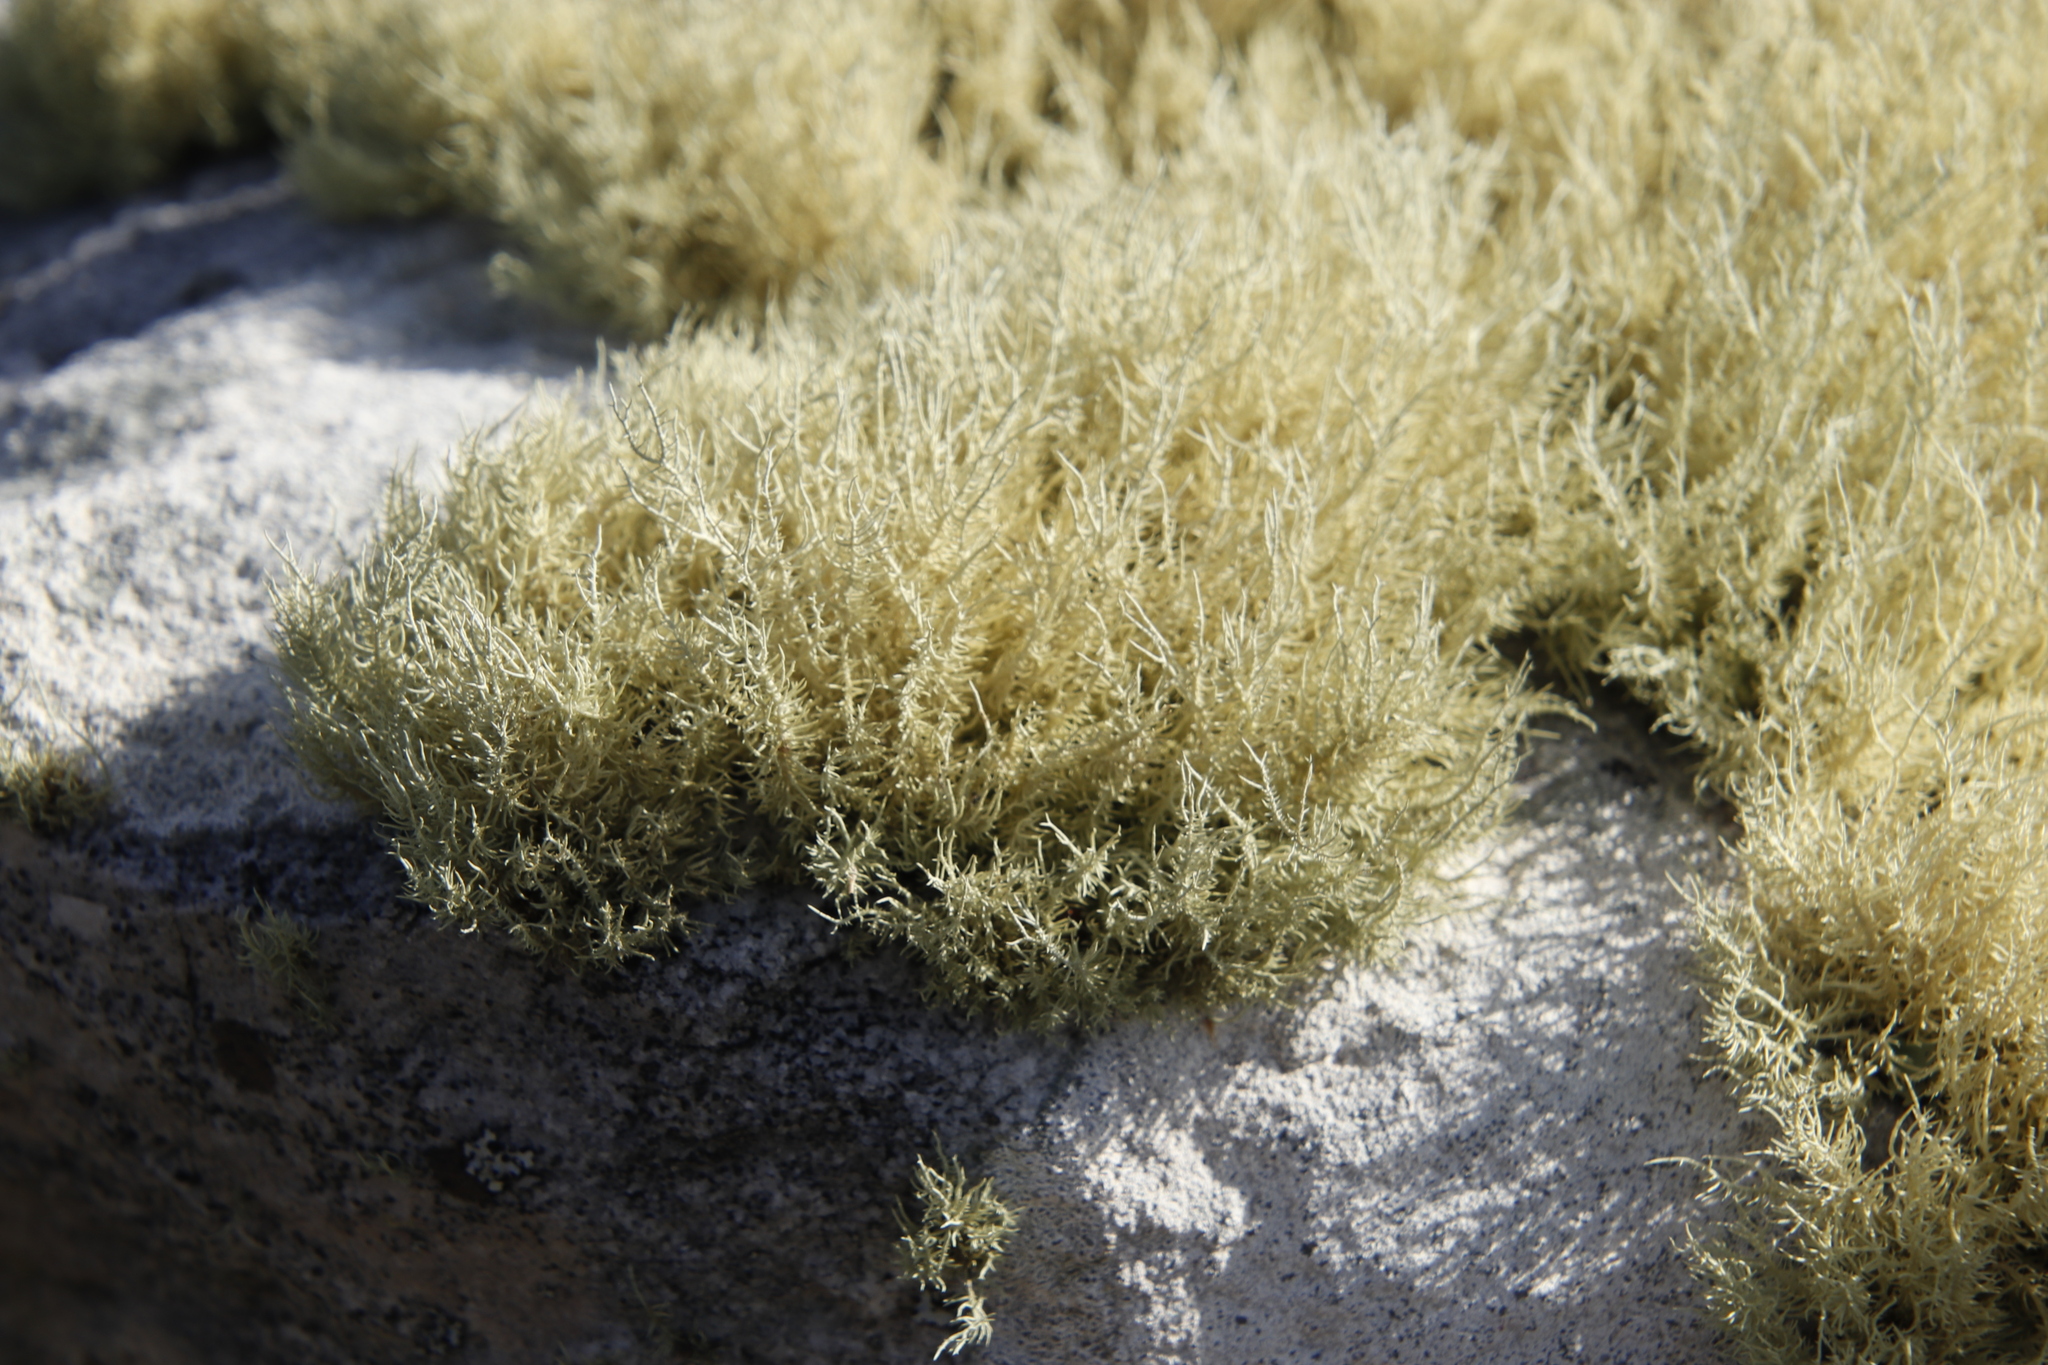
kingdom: Fungi
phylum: Ascomycota
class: Lecanoromycetes
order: Lecanorales
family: Parmeliaceae
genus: Usnea
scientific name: Usnea pulvinata
